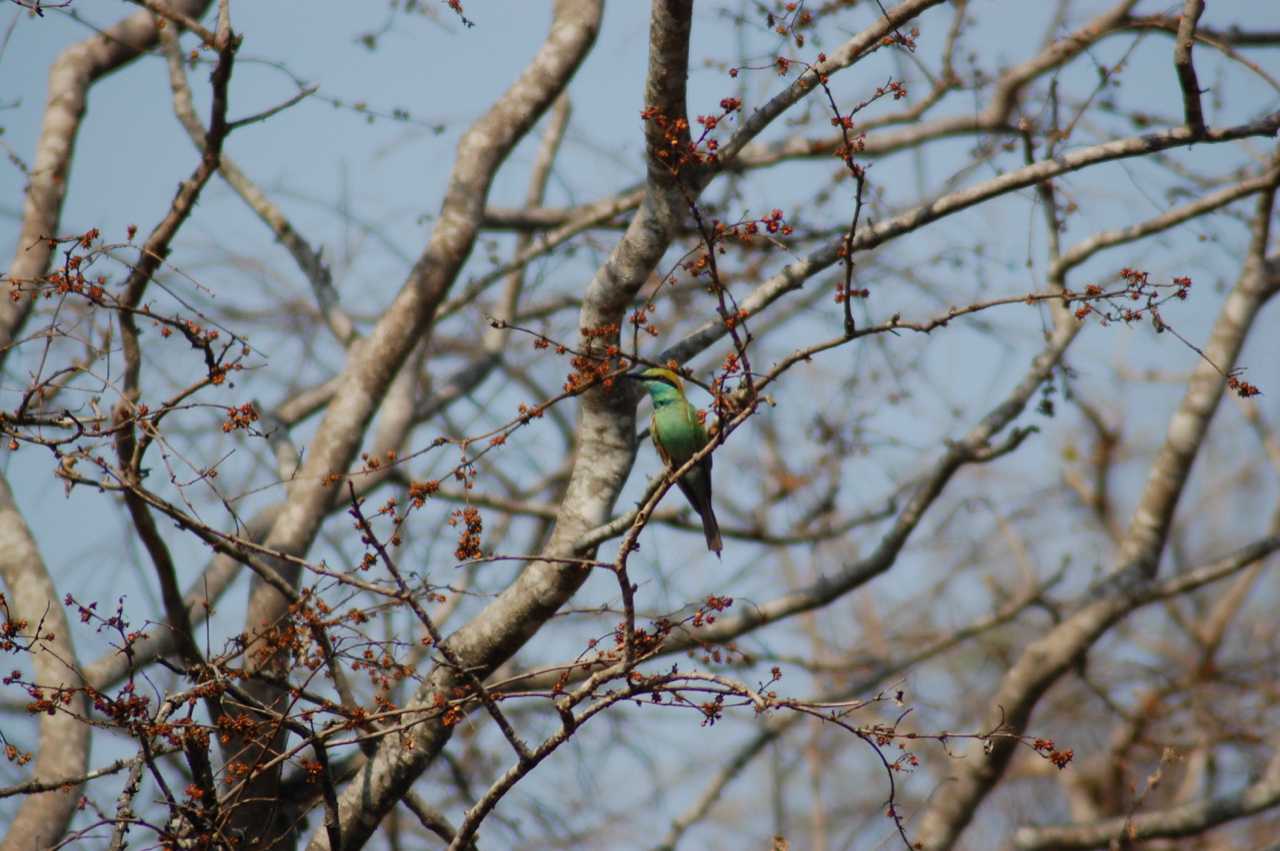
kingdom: Animalia
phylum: Chordata
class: Aves
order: Coraciiformes
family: Meropidae
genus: Merops
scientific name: Merops orientalis
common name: Green bee-eater
